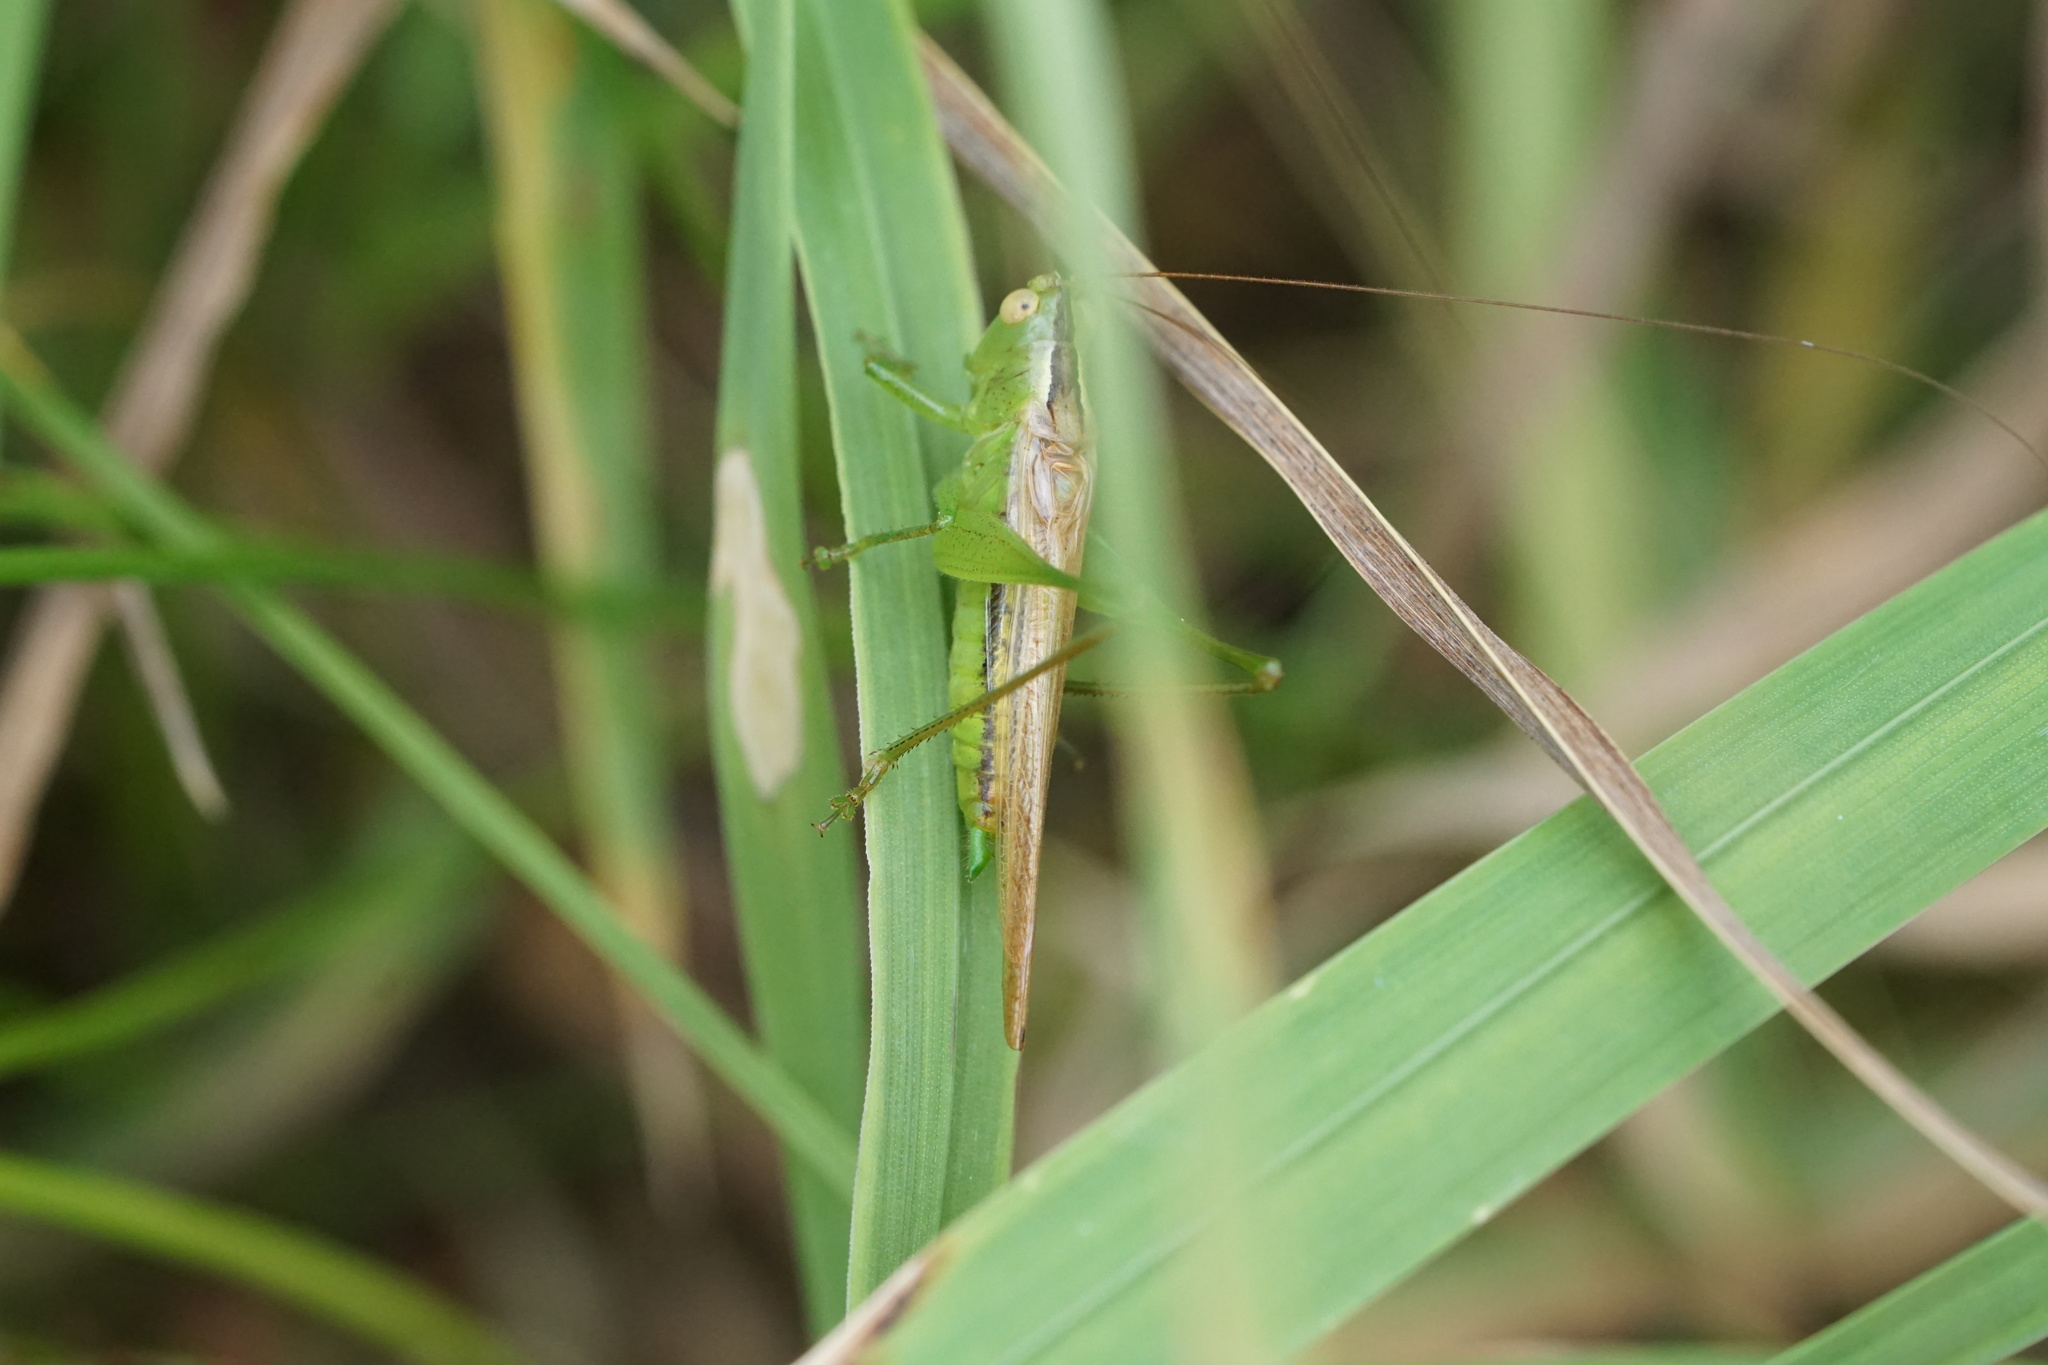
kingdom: Animalia
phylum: Arthropoda
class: Insecta
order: Orthoptera
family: Tettigoniidae
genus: Conocephalus
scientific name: Conocephalus fasciatus
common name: Slender meadow katydid
